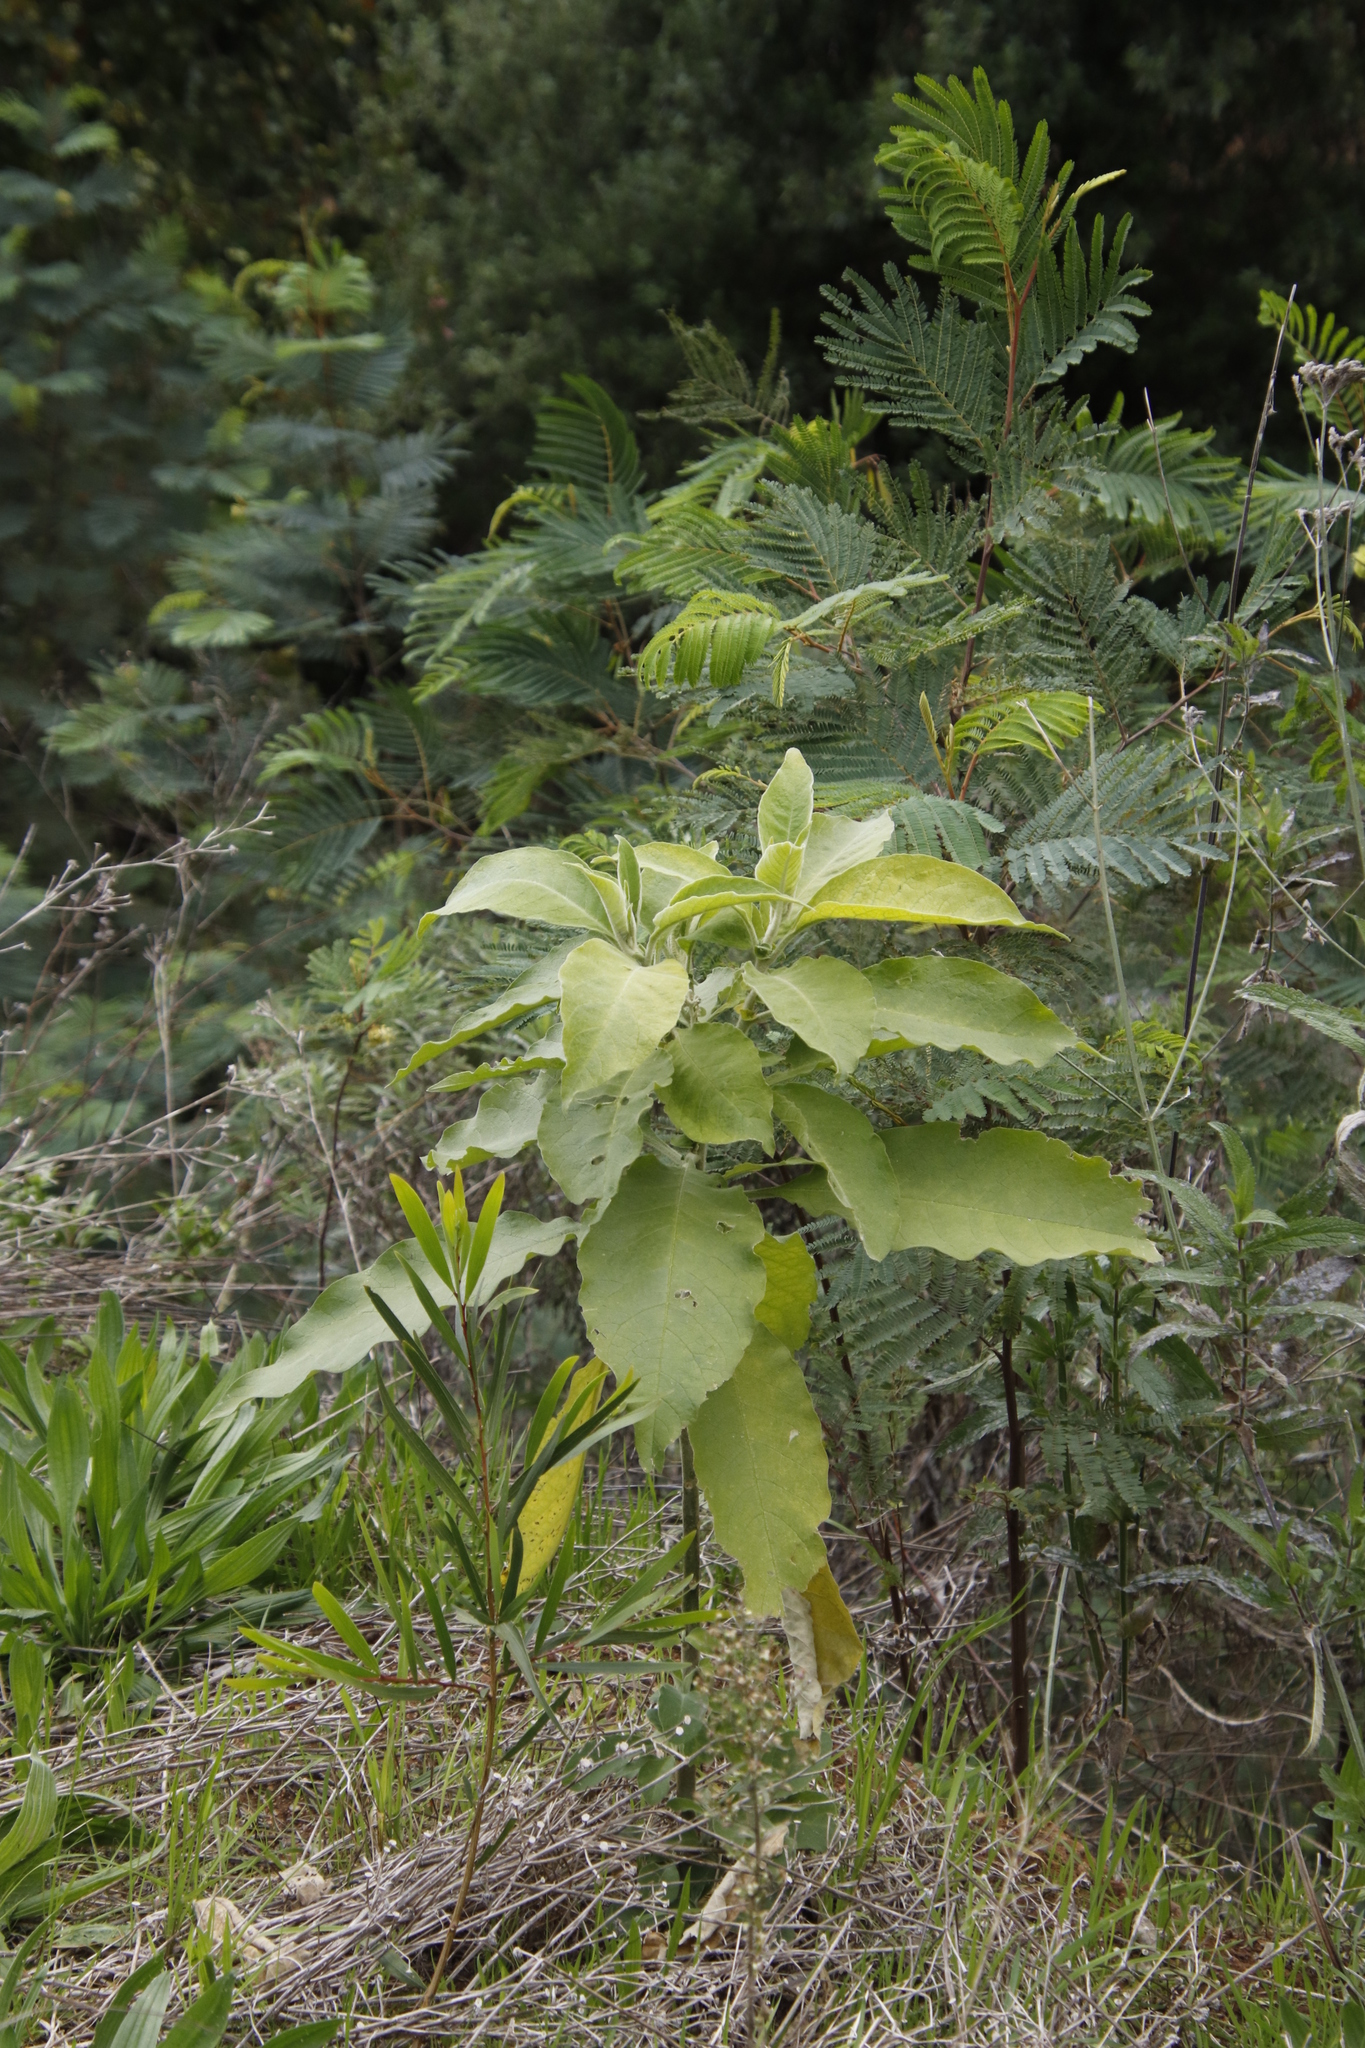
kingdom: Plantae
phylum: Tracheophyta
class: Magnoliopsida
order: Solanales
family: Solanaceae
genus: Solanum
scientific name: Solanum mauritianum
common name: Earleaf nightshade
